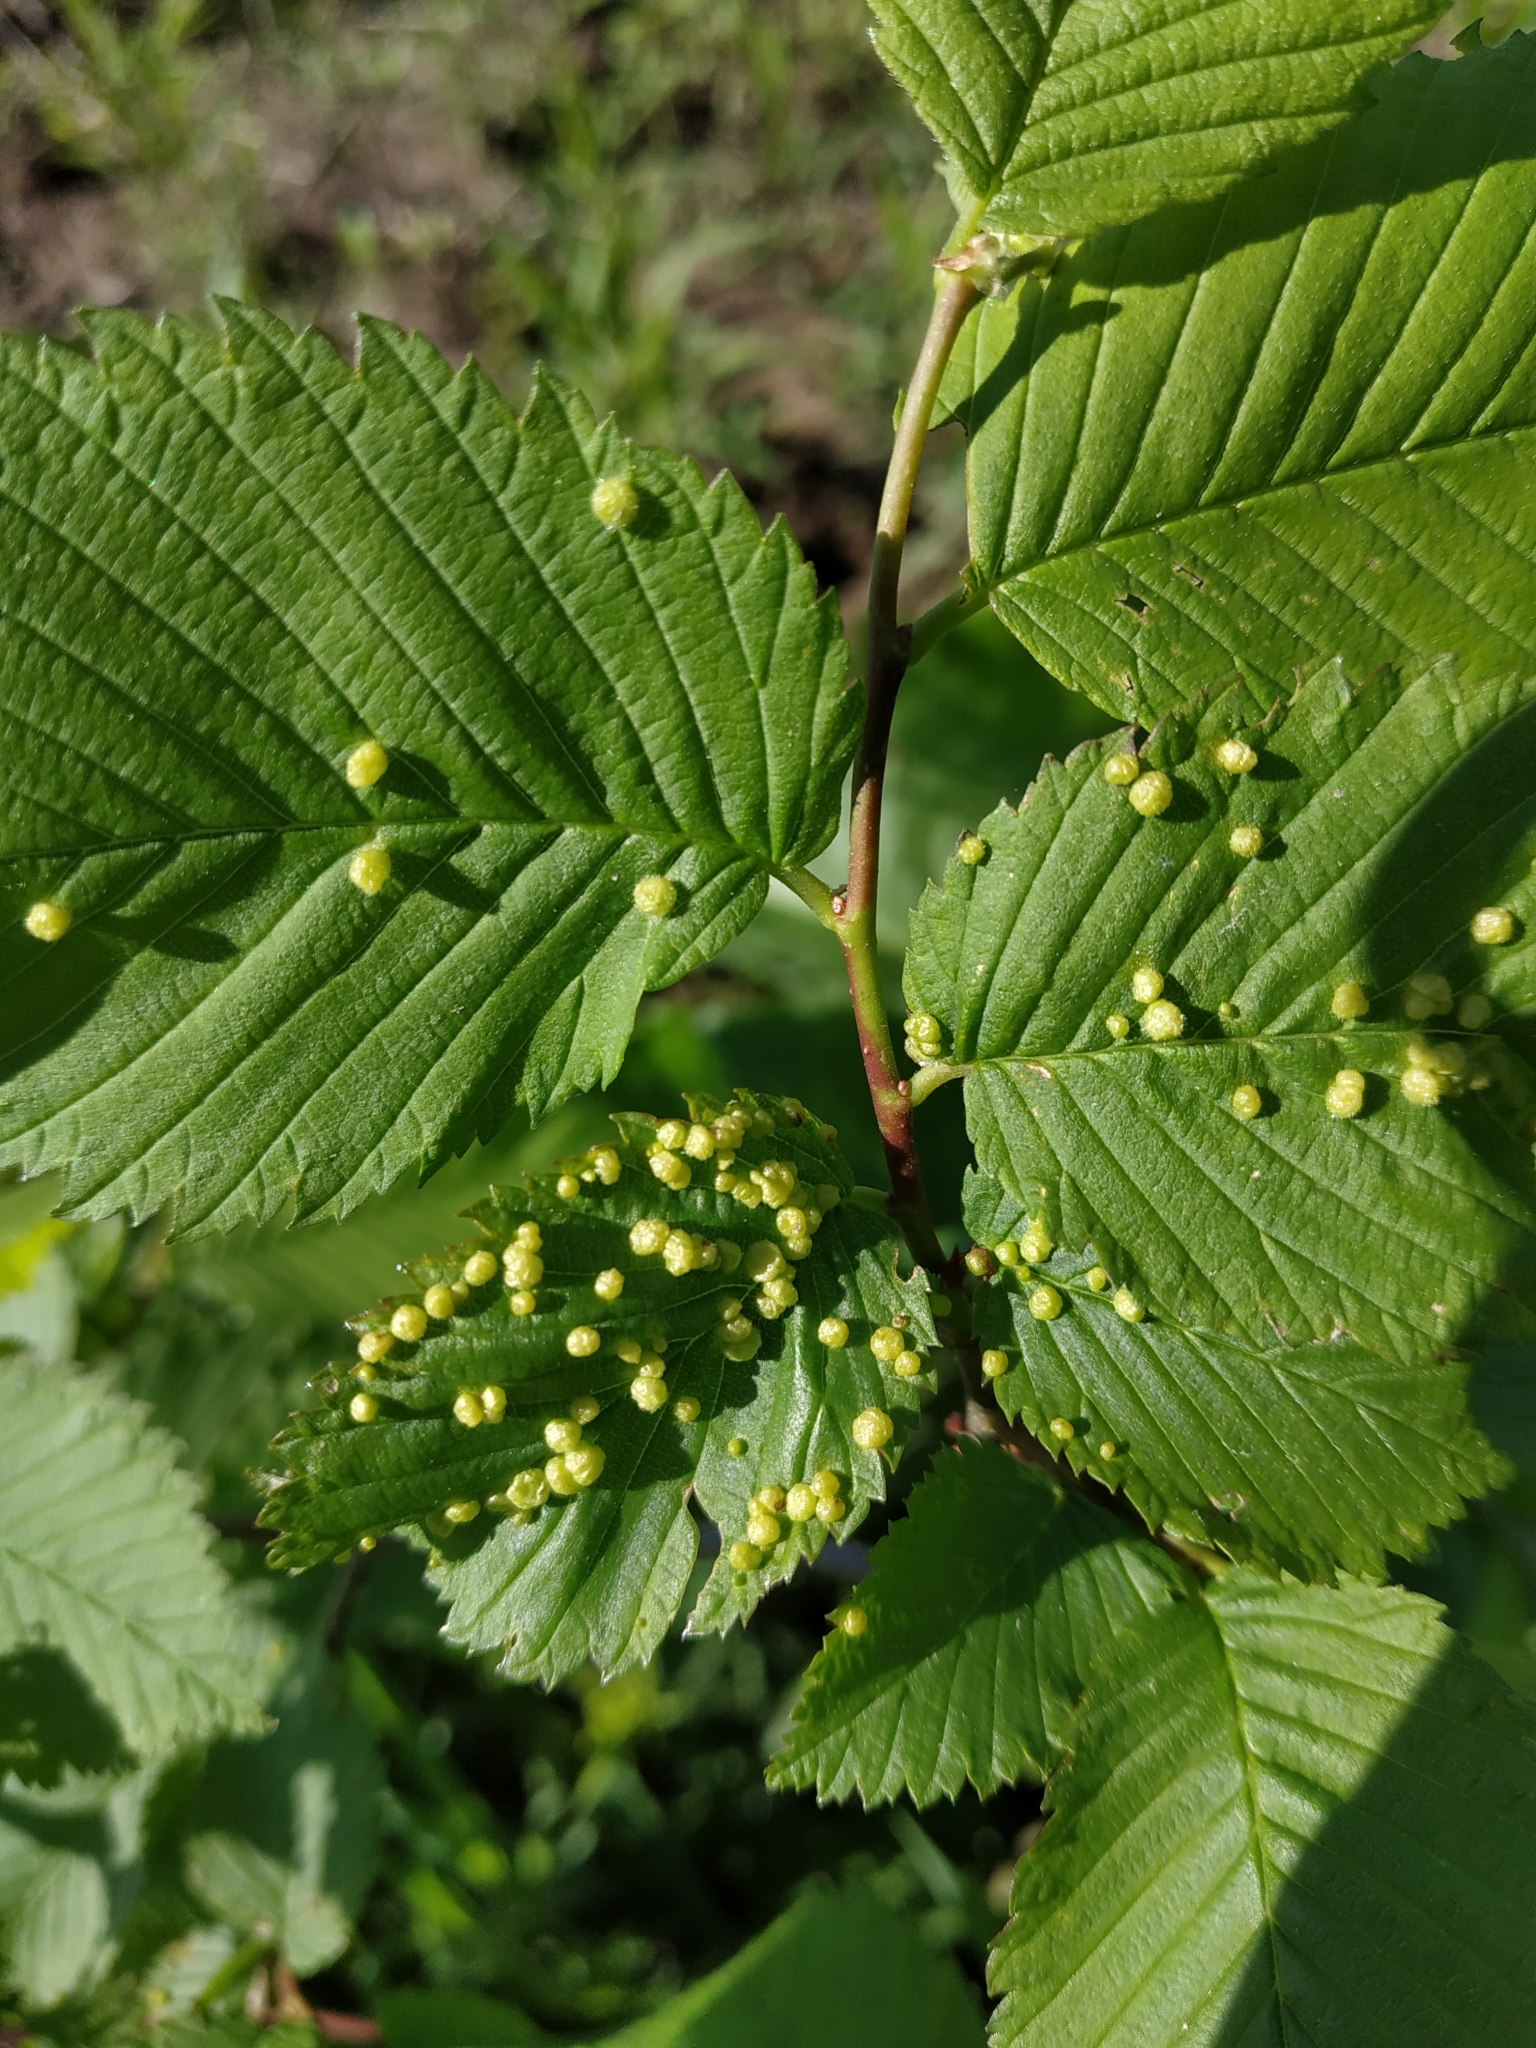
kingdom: Animalia
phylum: Arthropoda
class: Arachnida
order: Trombidiformes
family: Eriophyidae
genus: Aceria
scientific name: Aceria brevipunctata
